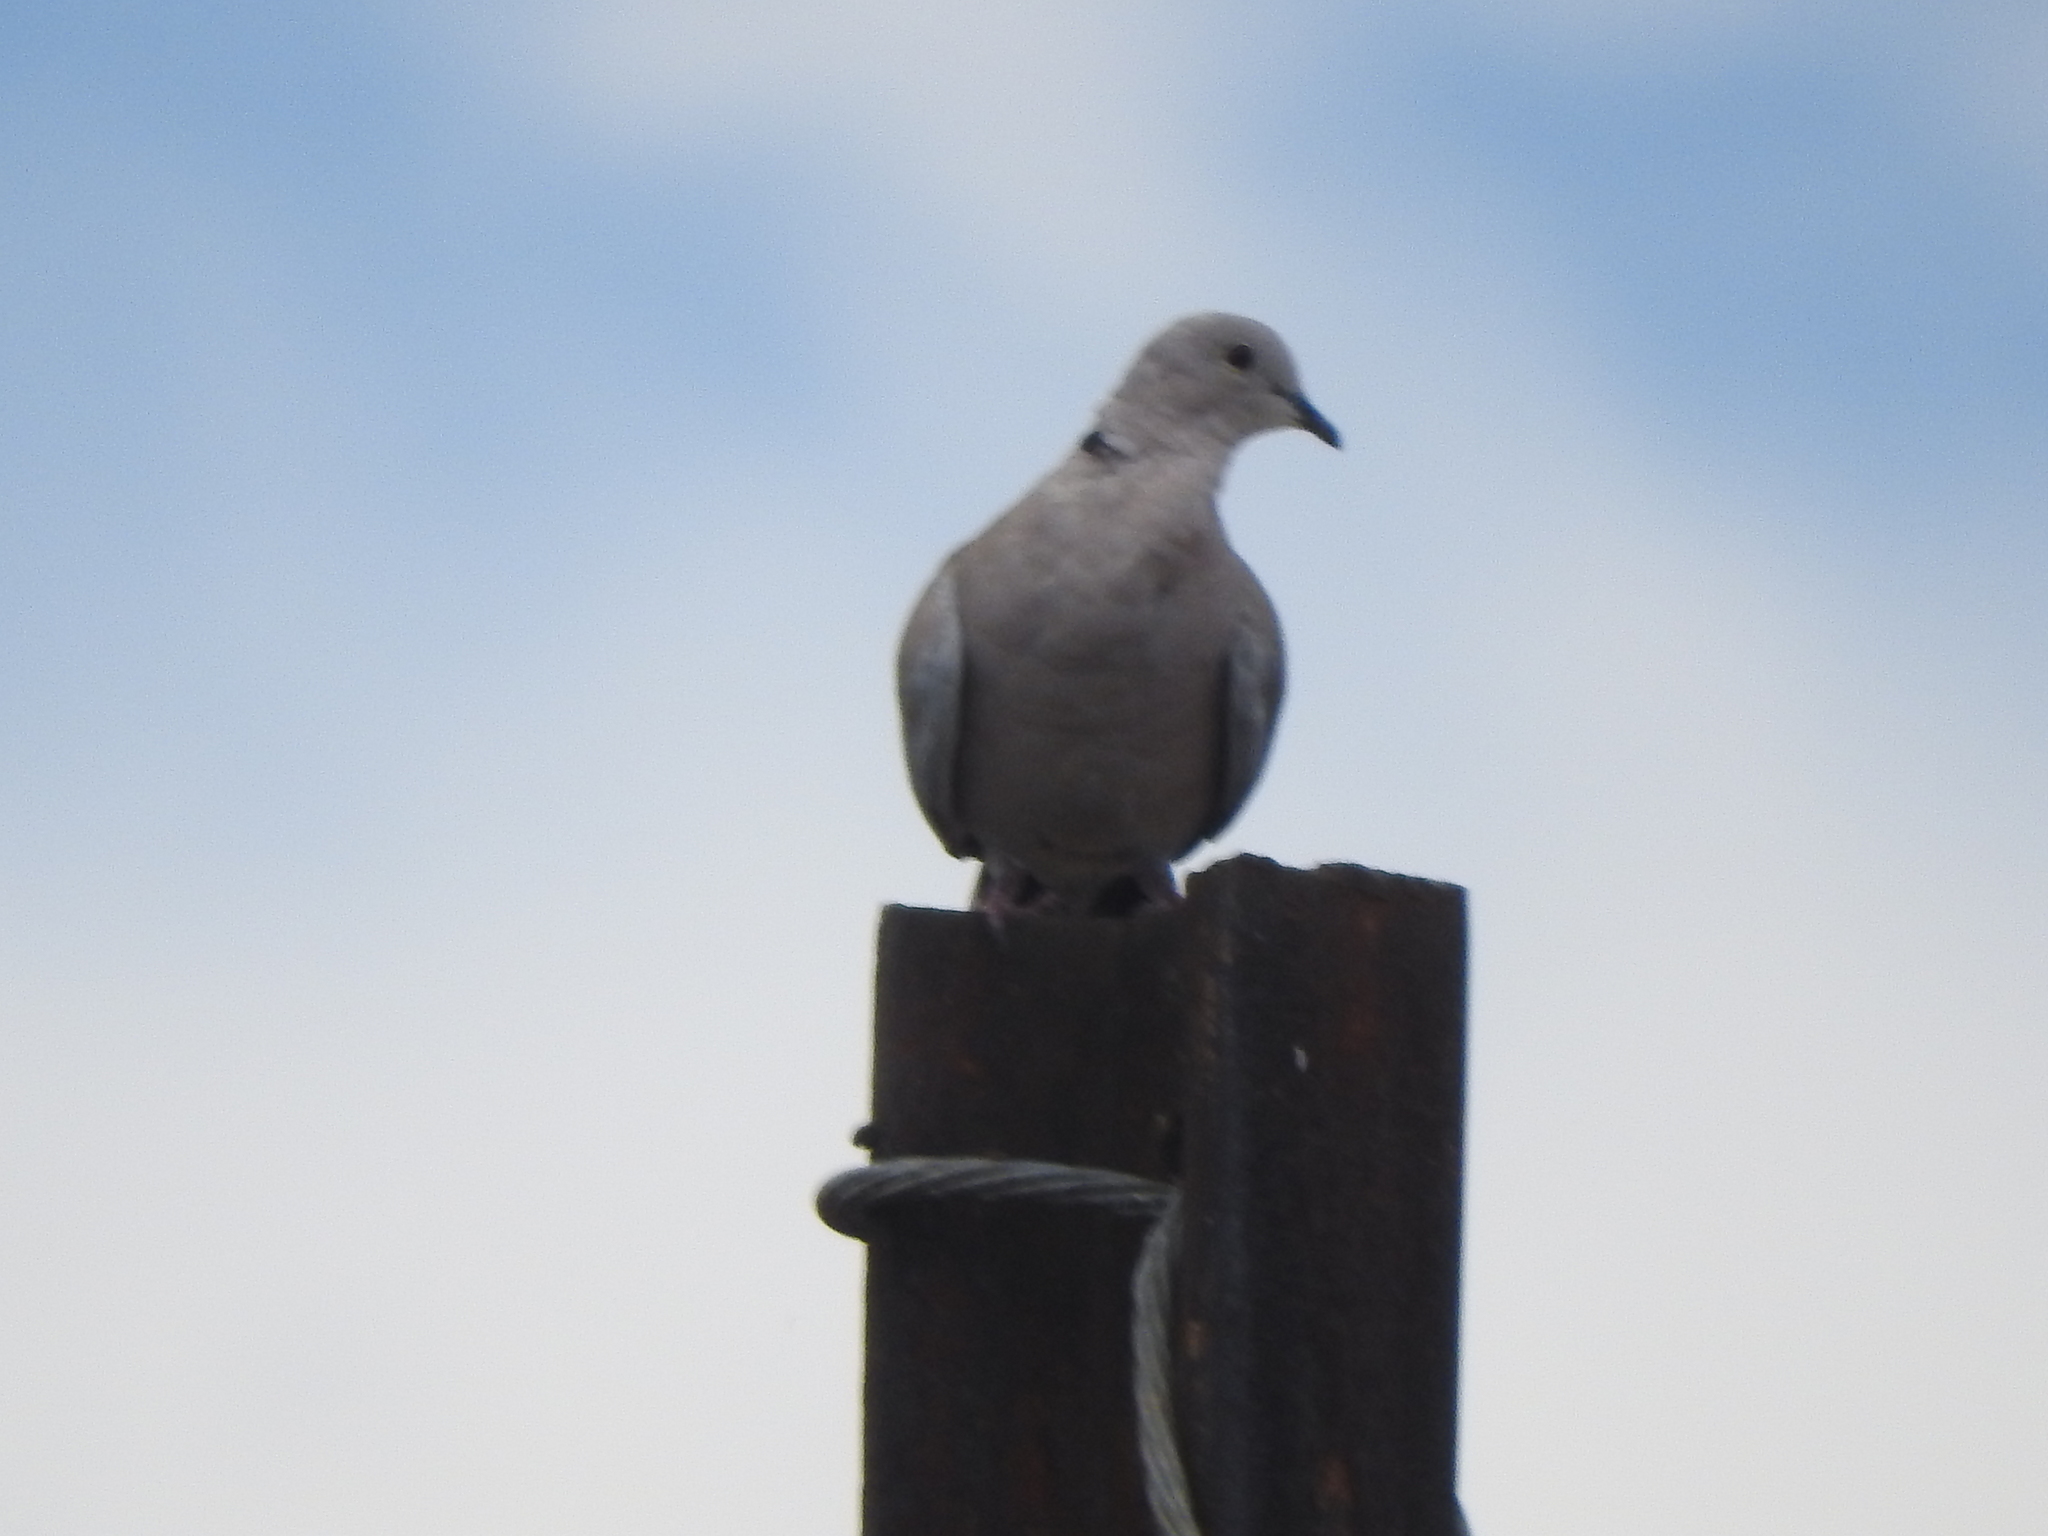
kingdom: Animalia
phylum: Chordata
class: Aves
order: Columbiformes
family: Columbidae
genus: Streptopelia
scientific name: Streptopelia decaocto
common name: Eurasian collared dove
